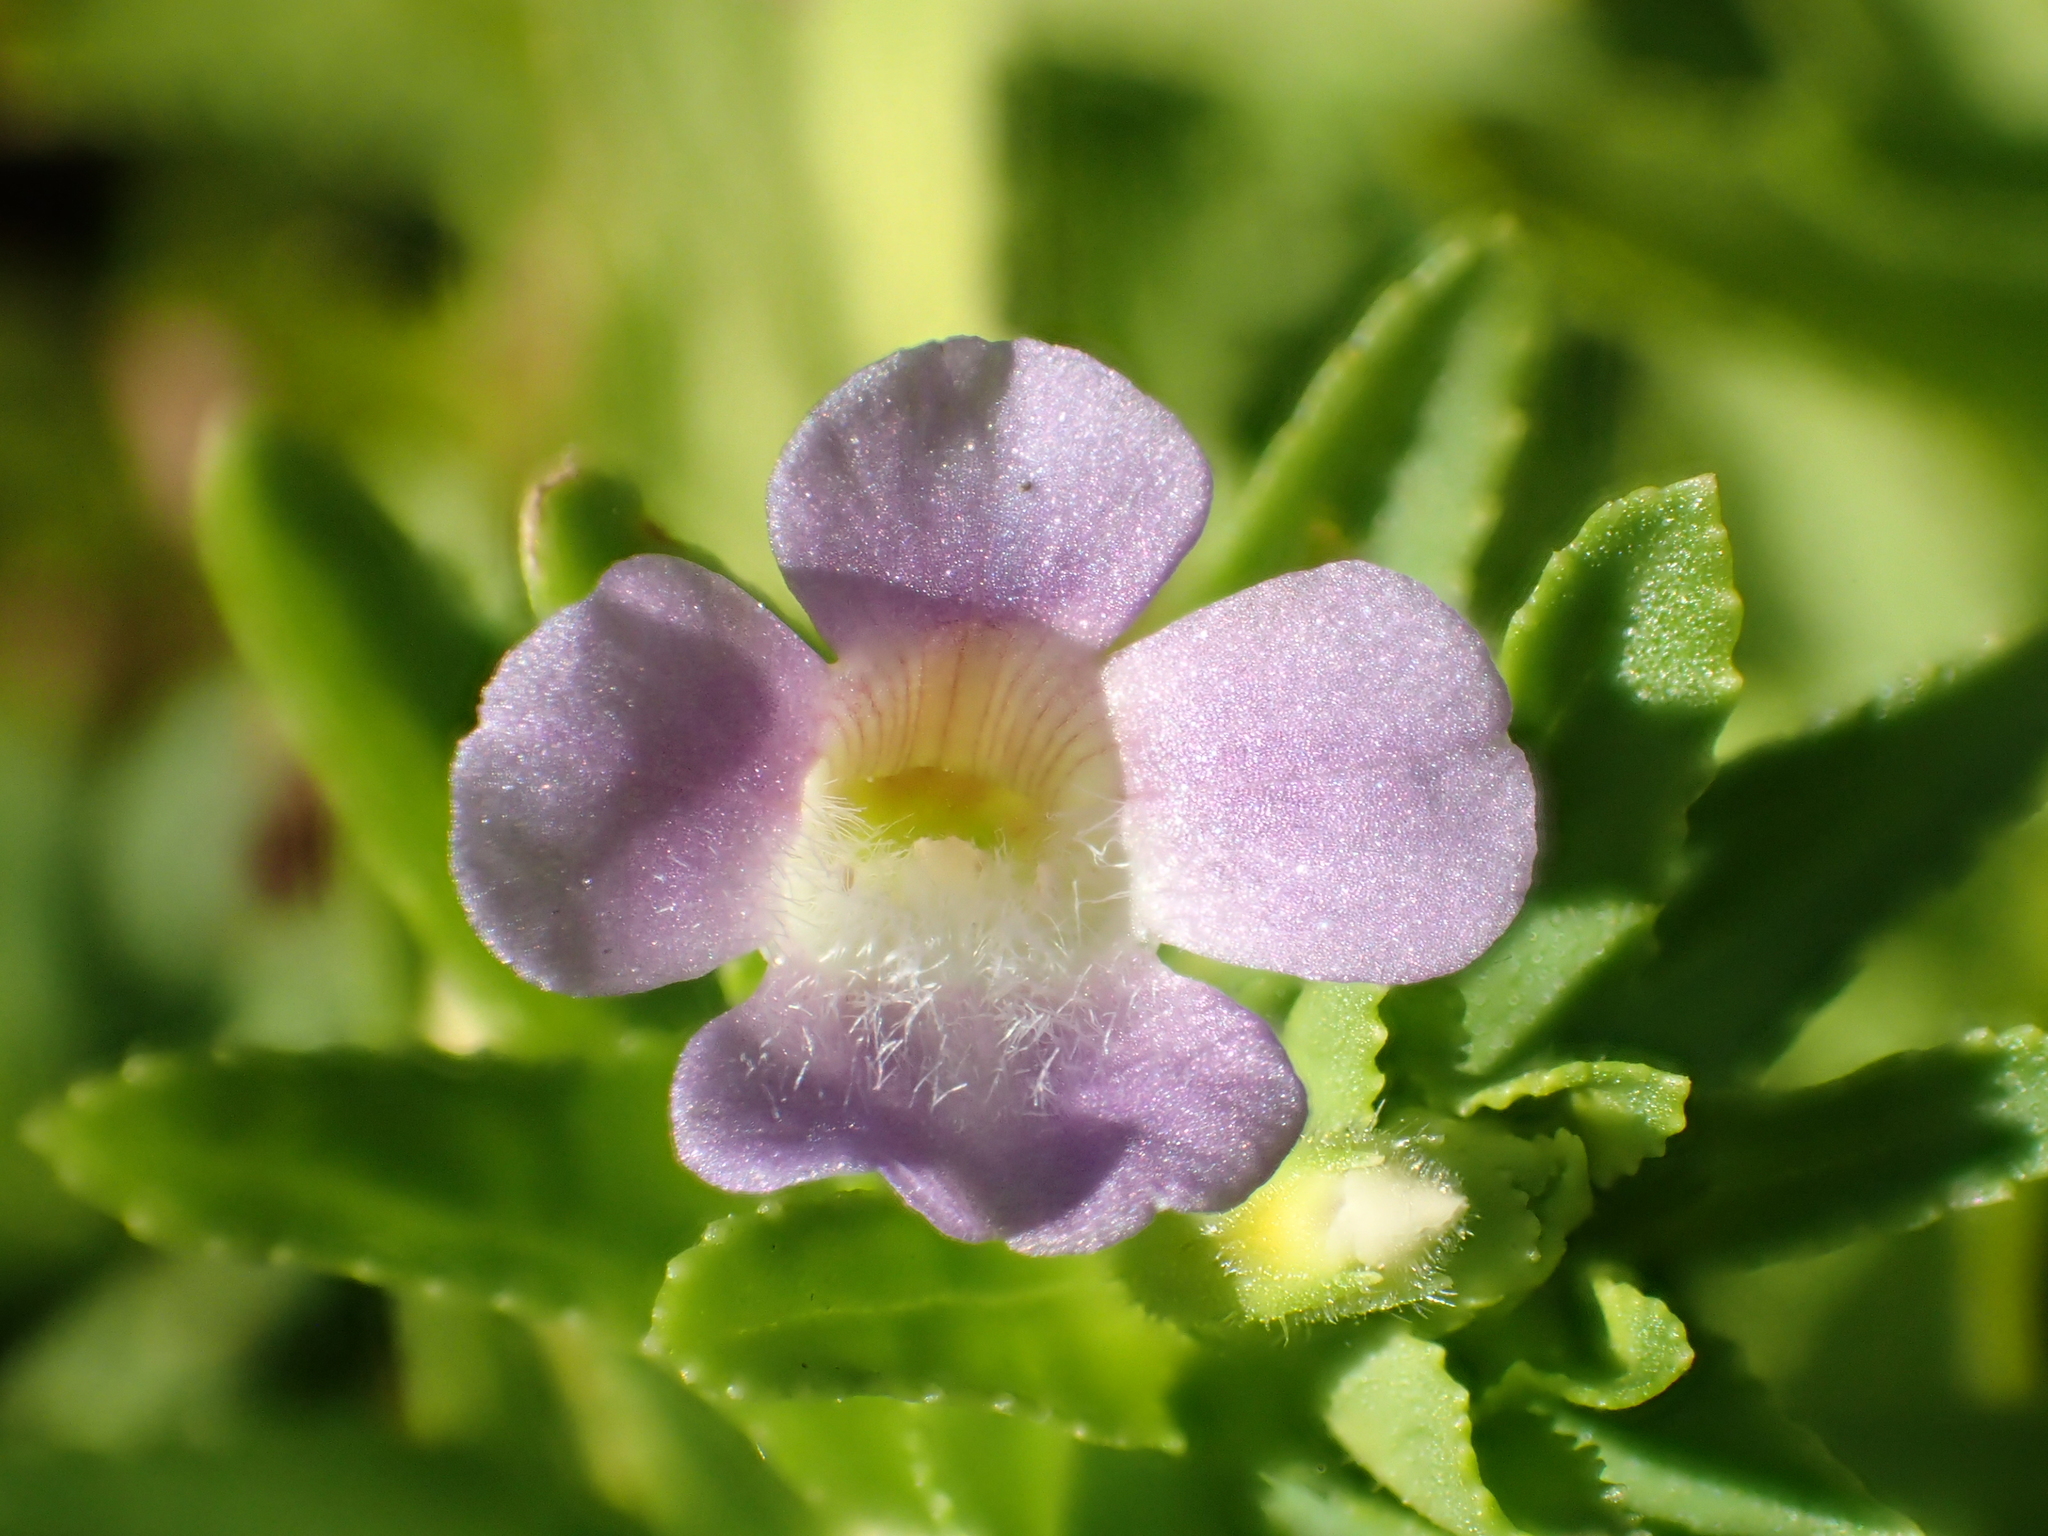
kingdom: Plantae
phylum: Tracheophyta
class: Magnoliopsida
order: Lamiales
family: Plantaginaceae
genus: Limnophila
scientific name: Limnophila aromatica
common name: Finger grass
